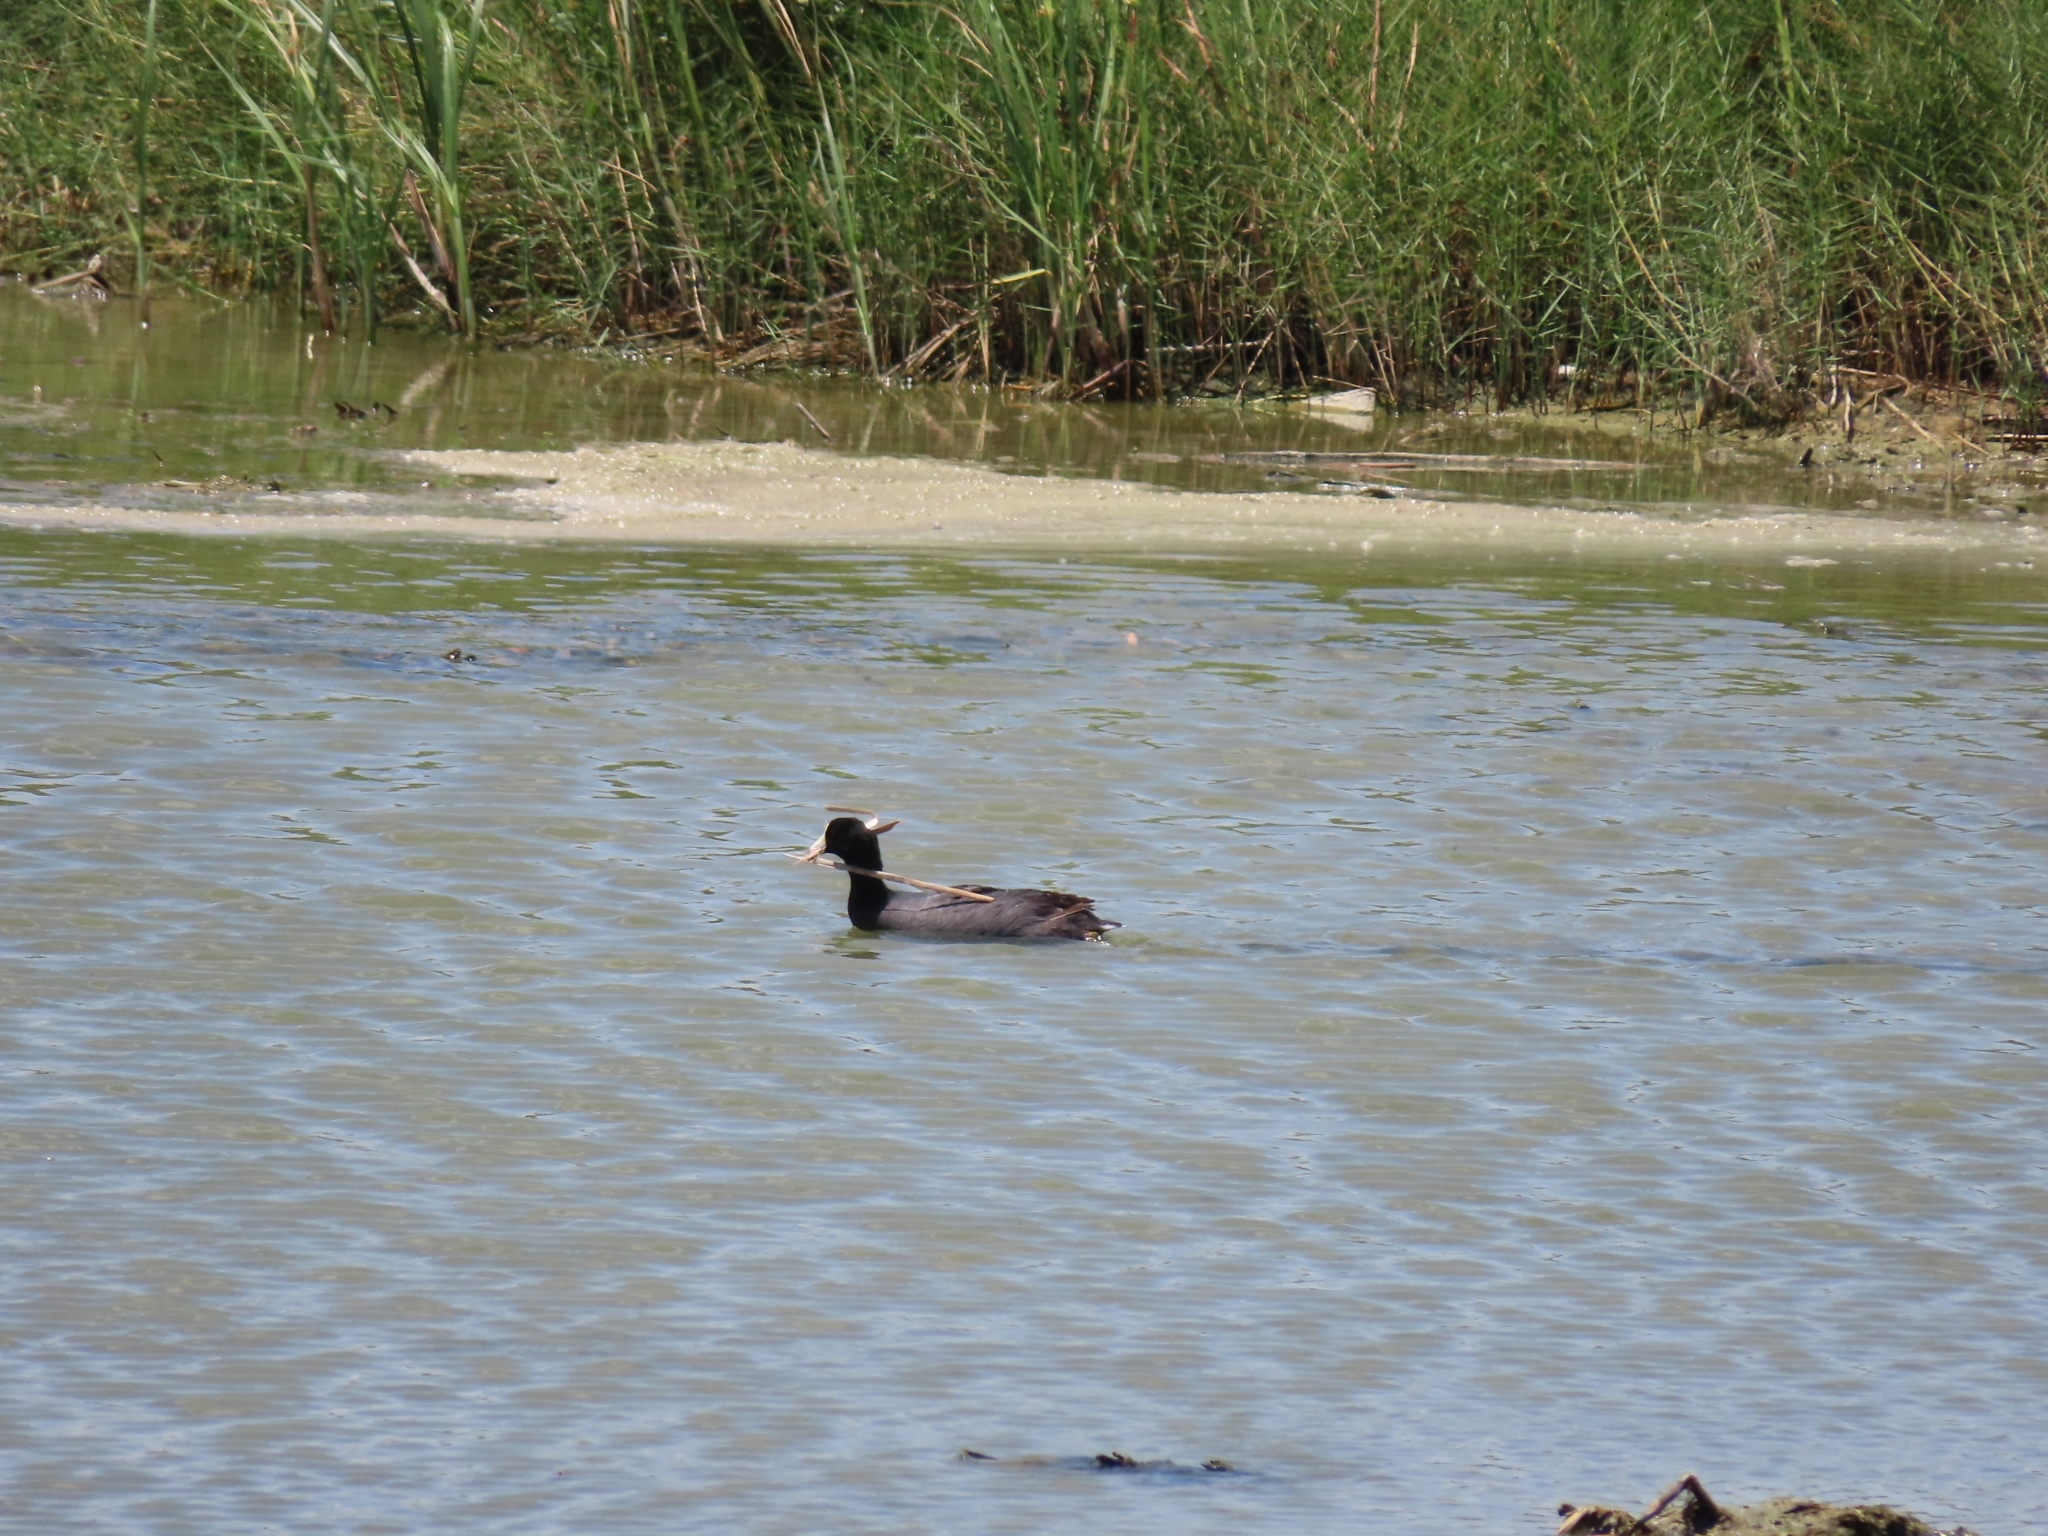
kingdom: Animalia
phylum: Chordata
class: Aves
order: Gruiformes
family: Rallidae
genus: Fulica
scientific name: Fulica americana
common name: American coot
